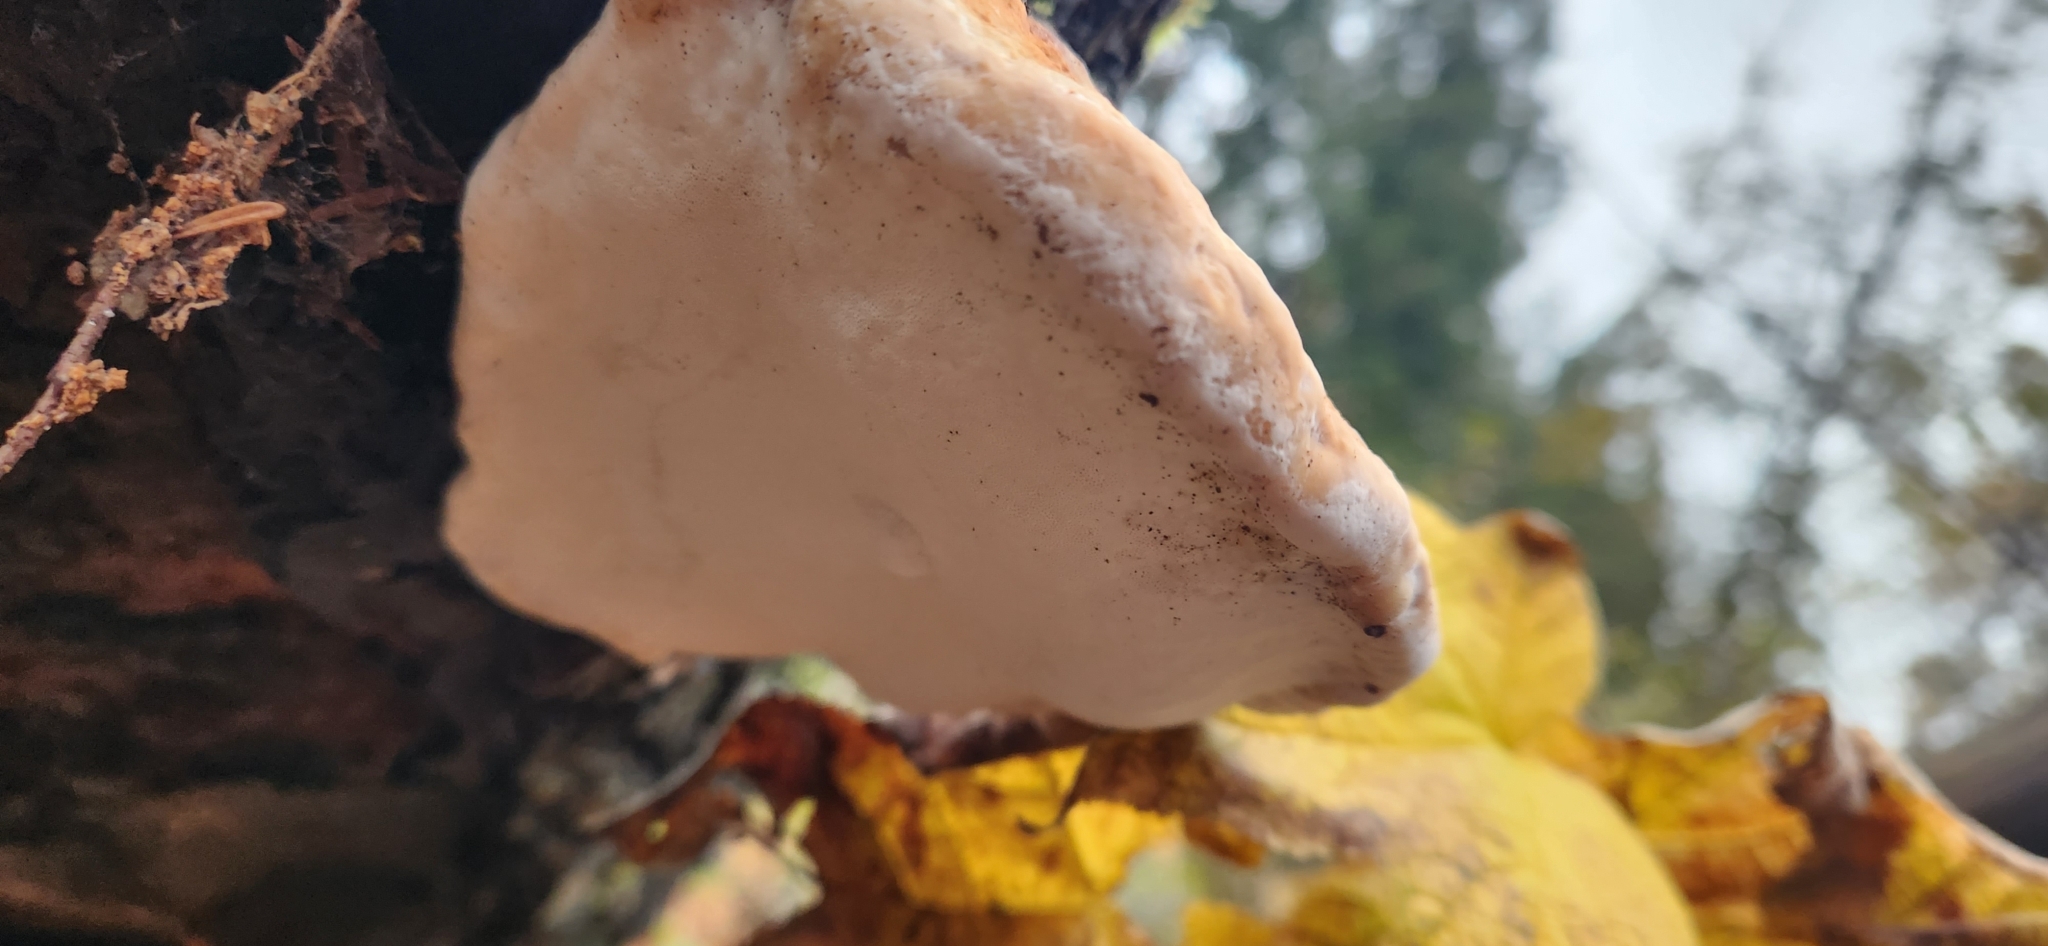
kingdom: Fungi
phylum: Basidiomycota
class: Agaricomycetes
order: Polyporales
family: Fomitopsidaceae
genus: Fomitopsis
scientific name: Fomitopsis mounceae
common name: Northern red belt
